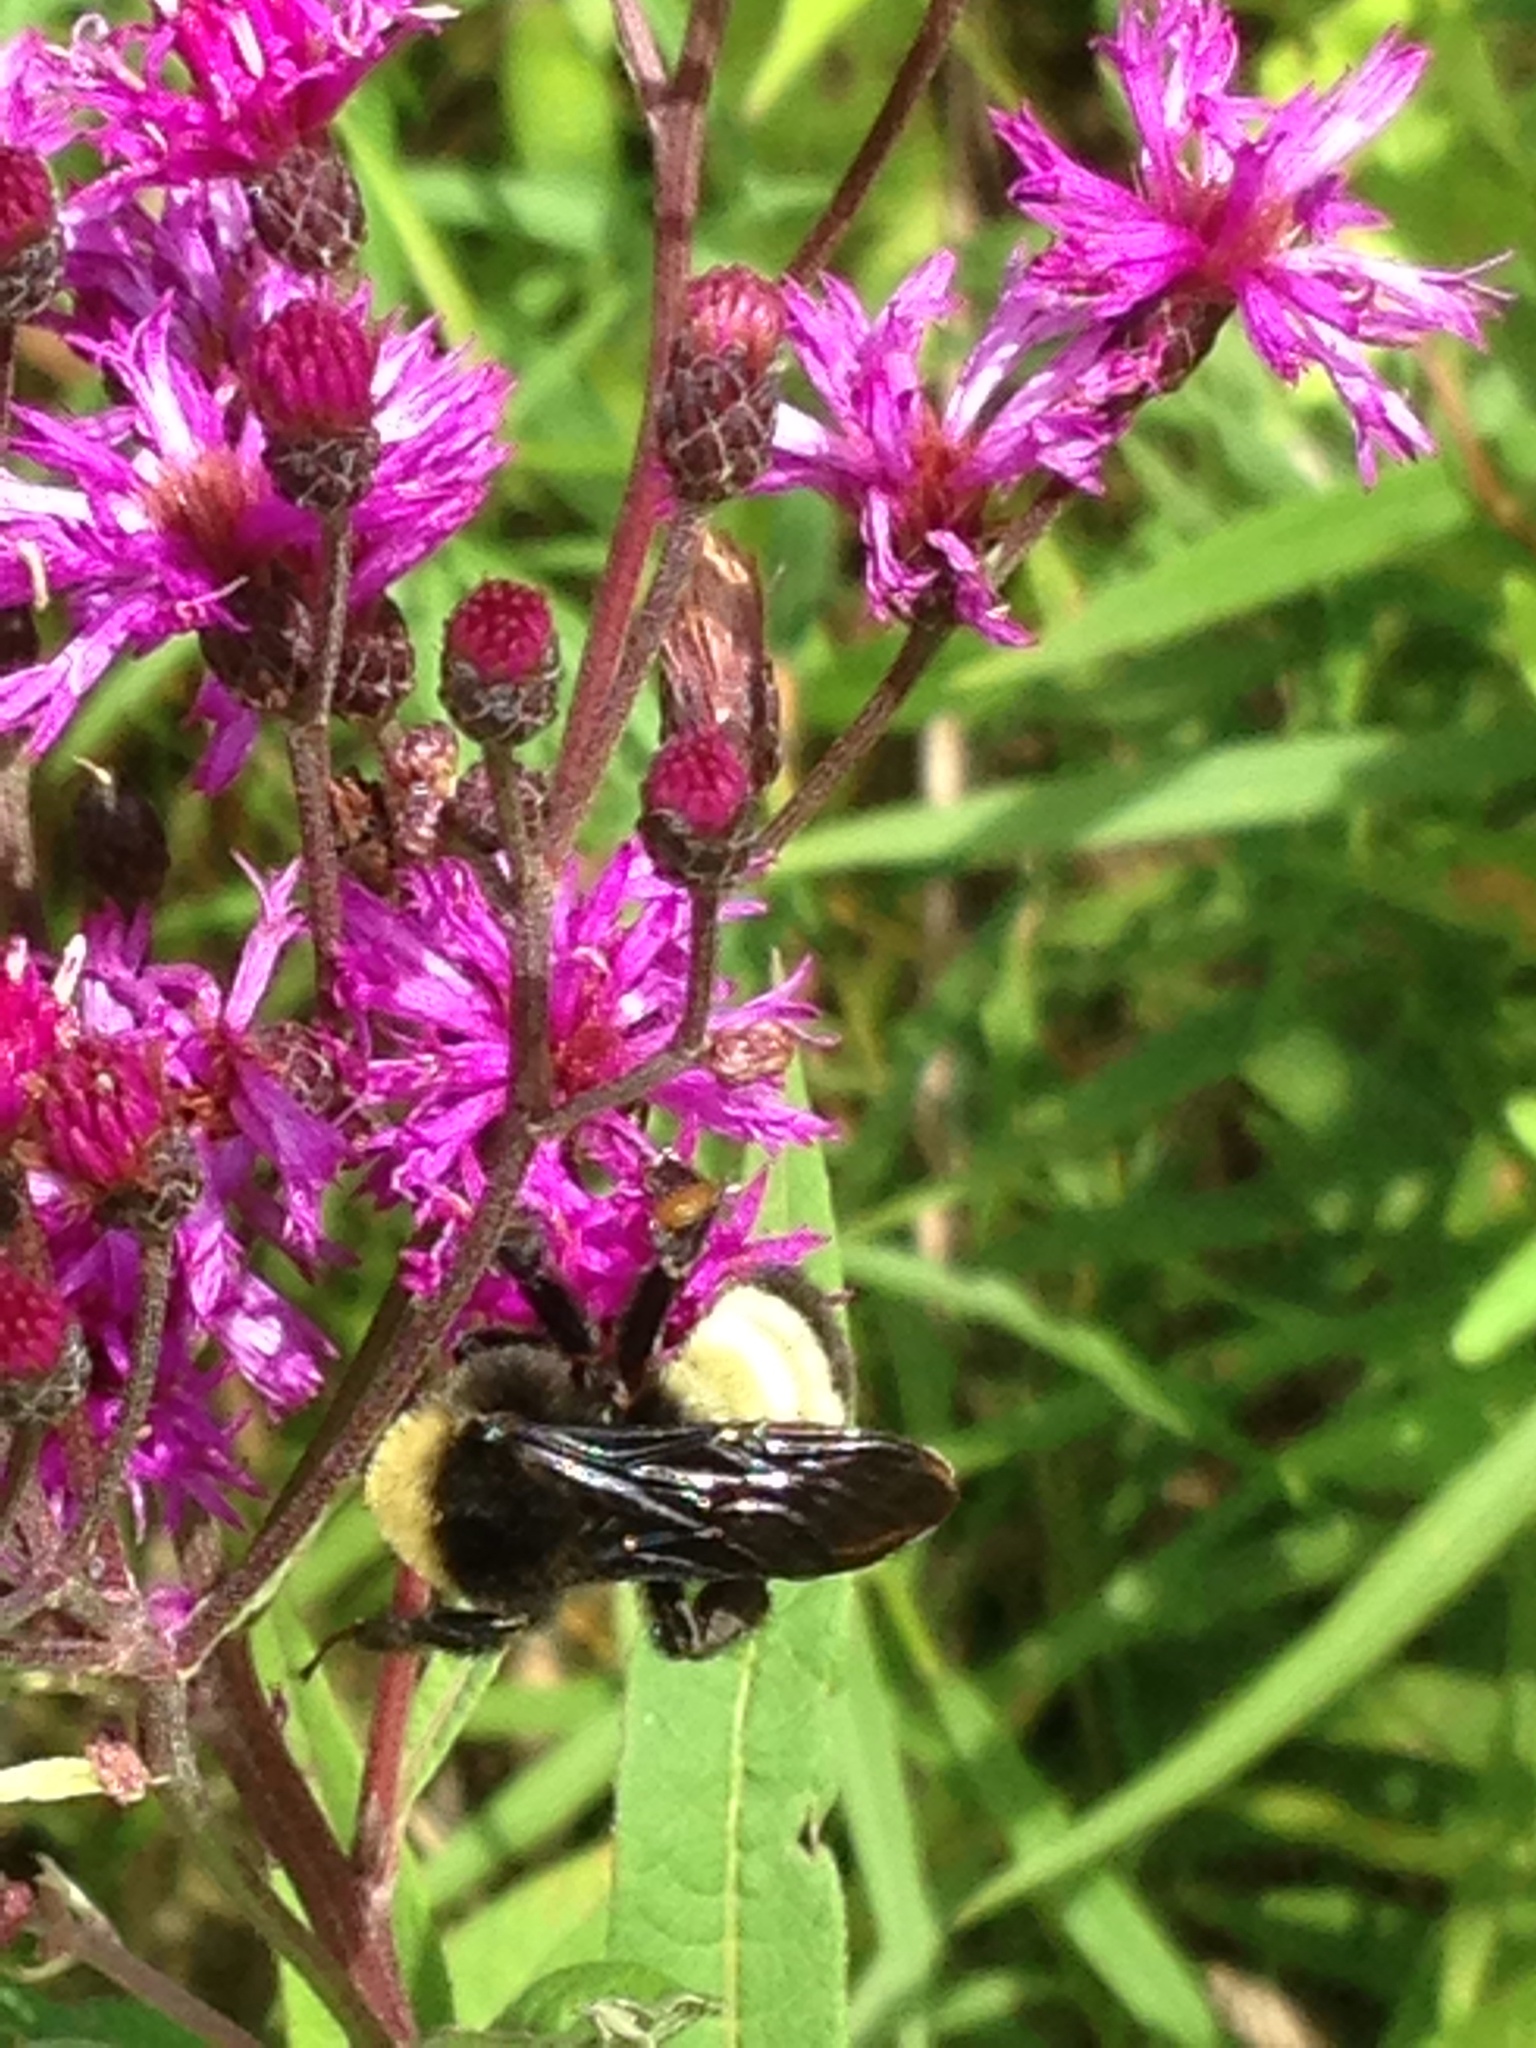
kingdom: Animalia
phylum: Arthropoda
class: Insecta
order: Hymenoptera
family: Apidae
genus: Bombus
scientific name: Bombus pensylvanicus
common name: Bumble bee
